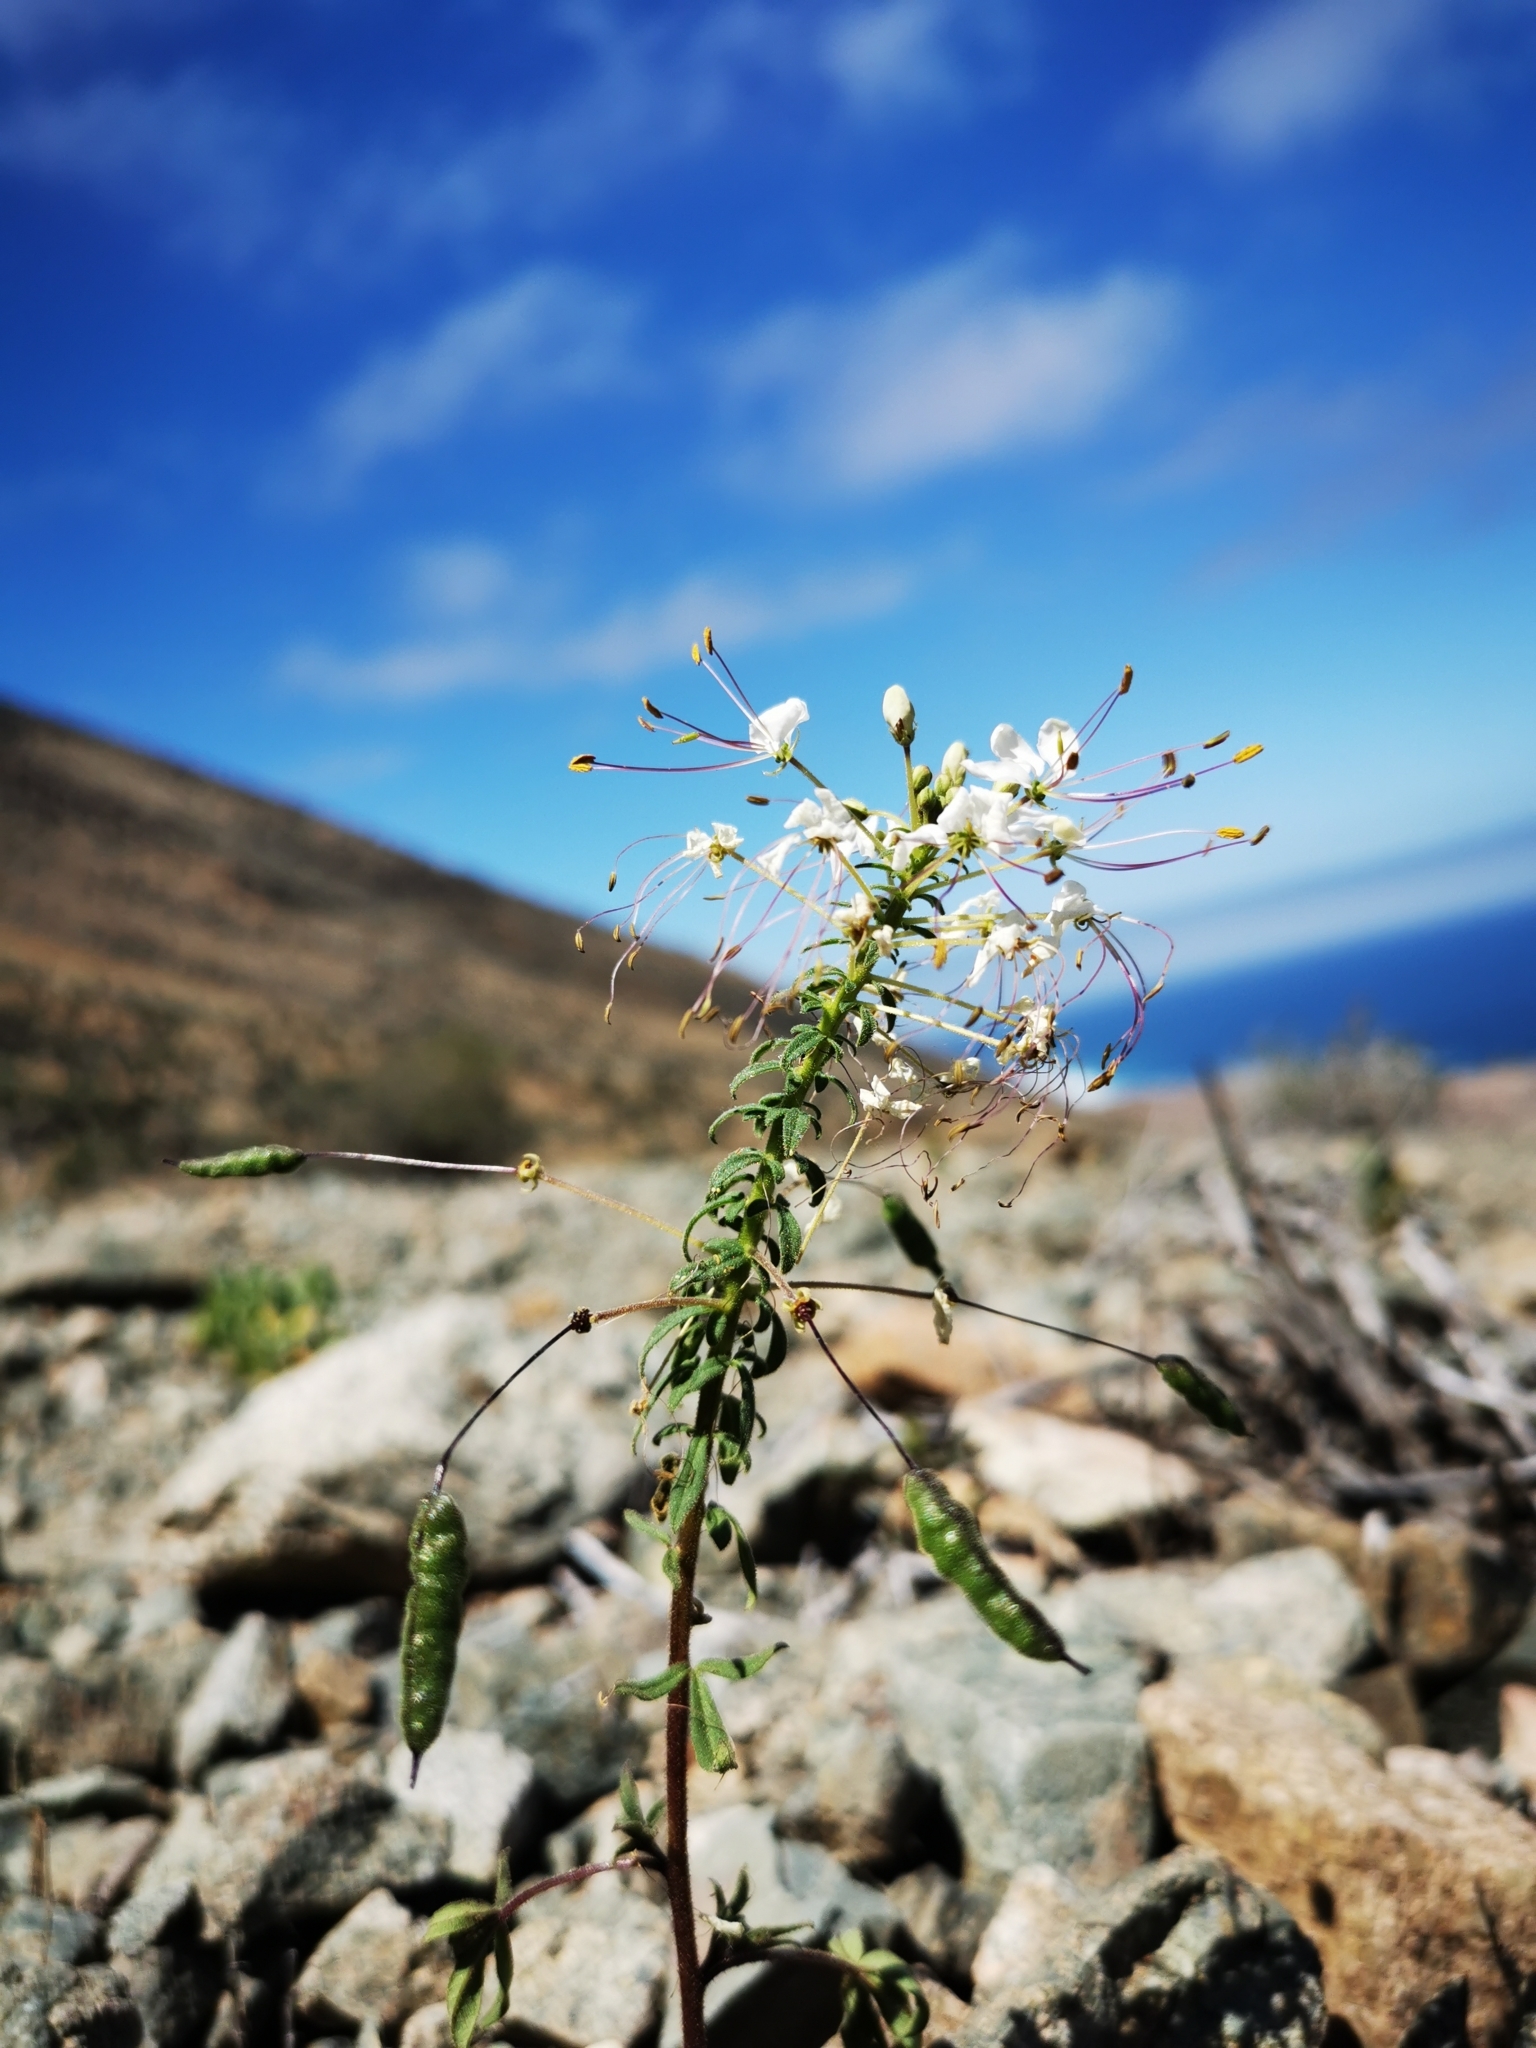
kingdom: Plantae
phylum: Tracheophyta
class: Magnoliopsida
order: Brassicales
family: Cleomaceae
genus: Andinocleome
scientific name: Andinocleome chilensis
